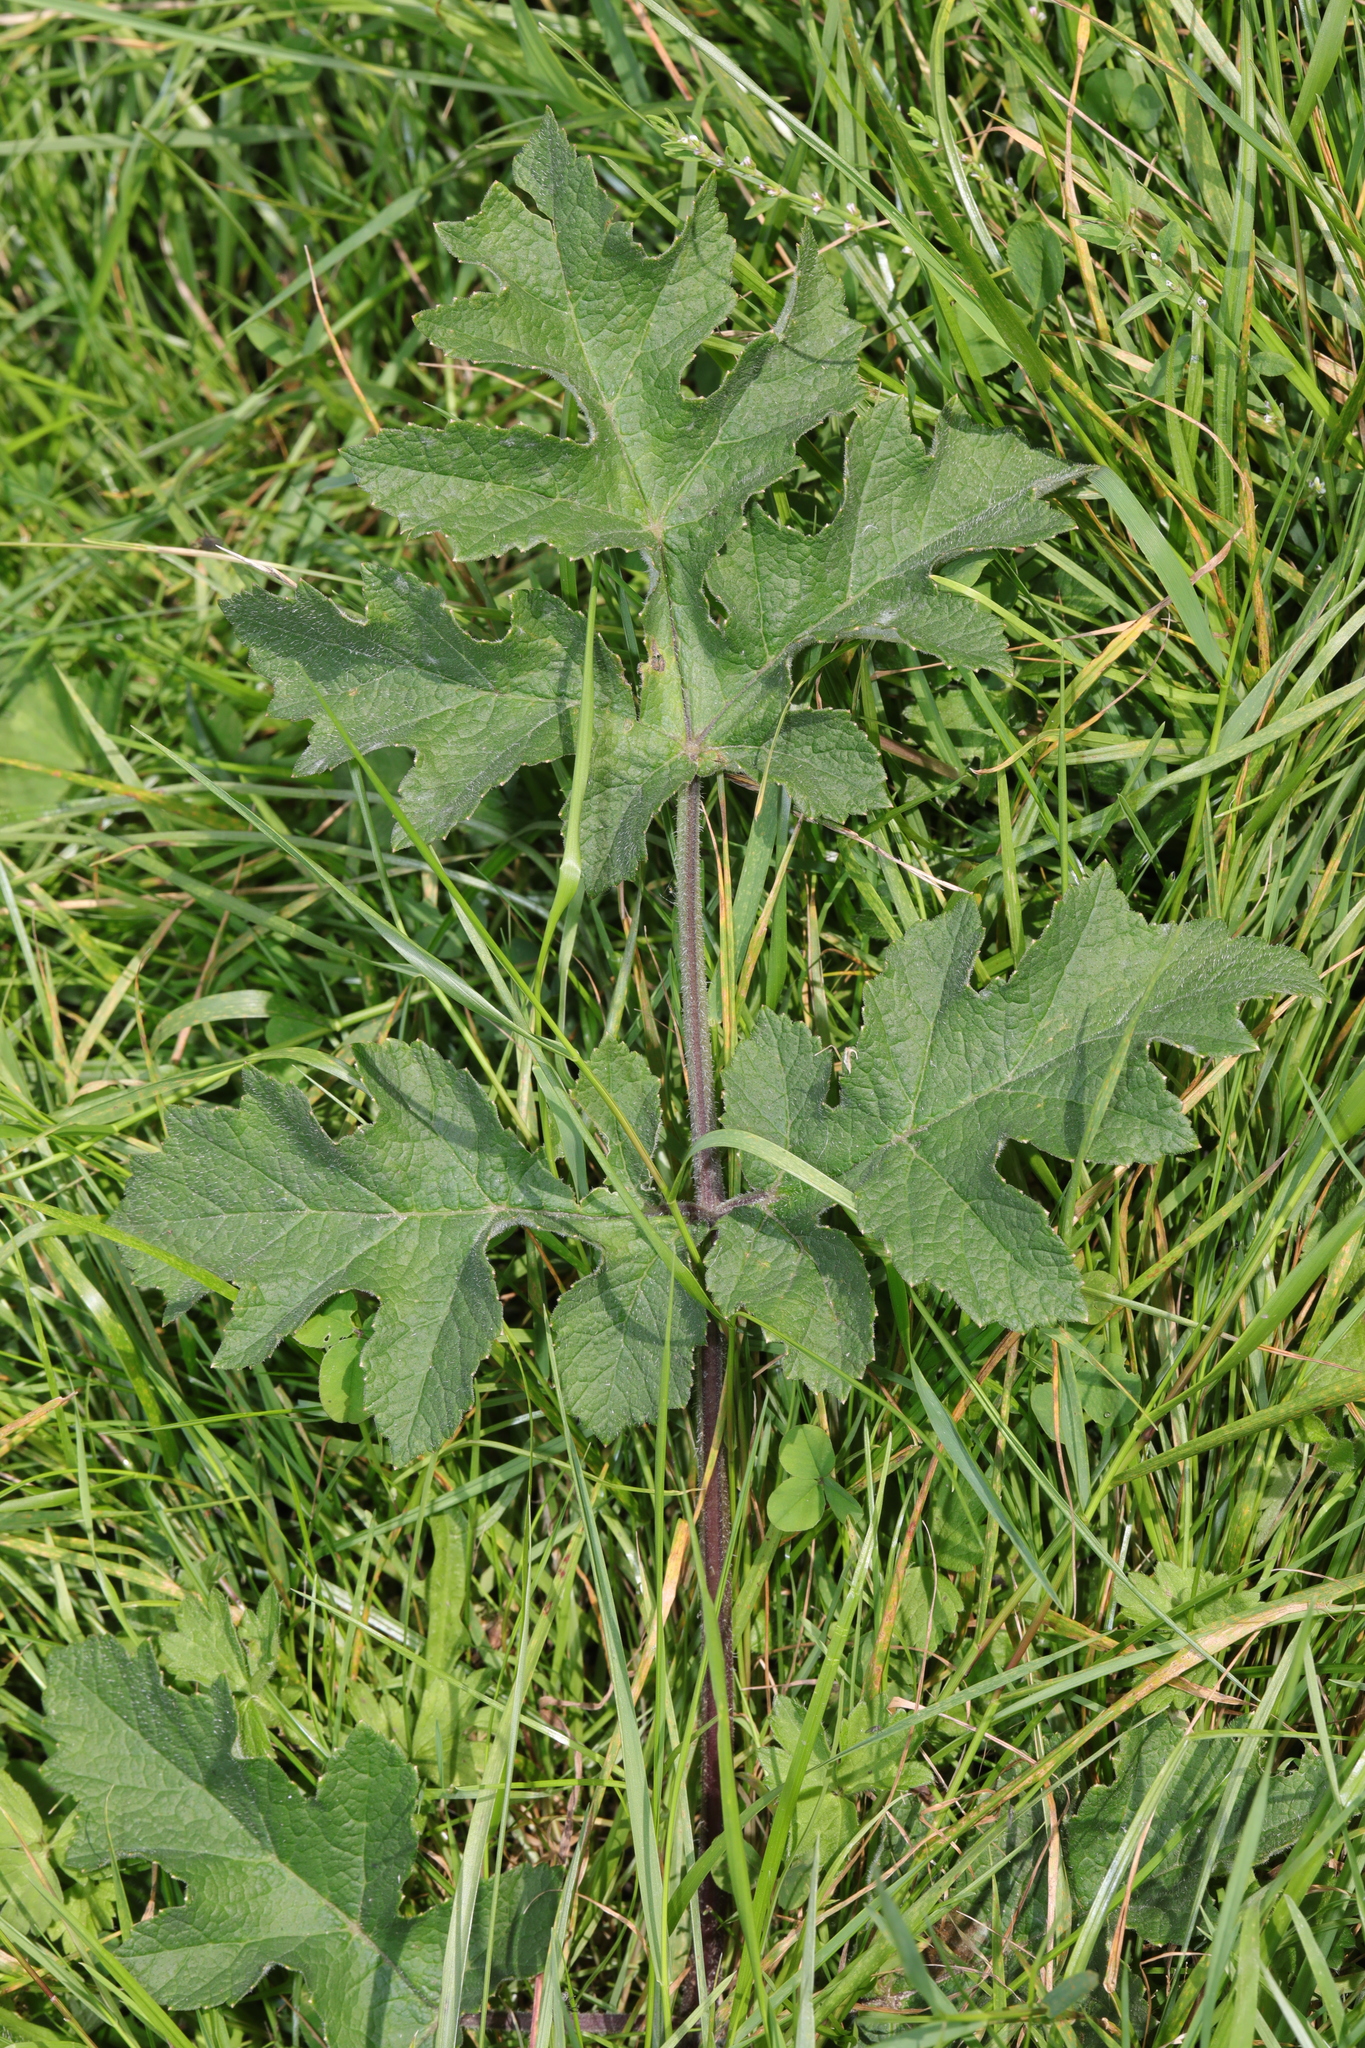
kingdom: Plantae
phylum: Tracheophyta
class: Magnoliopsida
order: Apiales
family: Apiaceae
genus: Heracleum
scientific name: Heracleum sphondylium
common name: Hogweed
